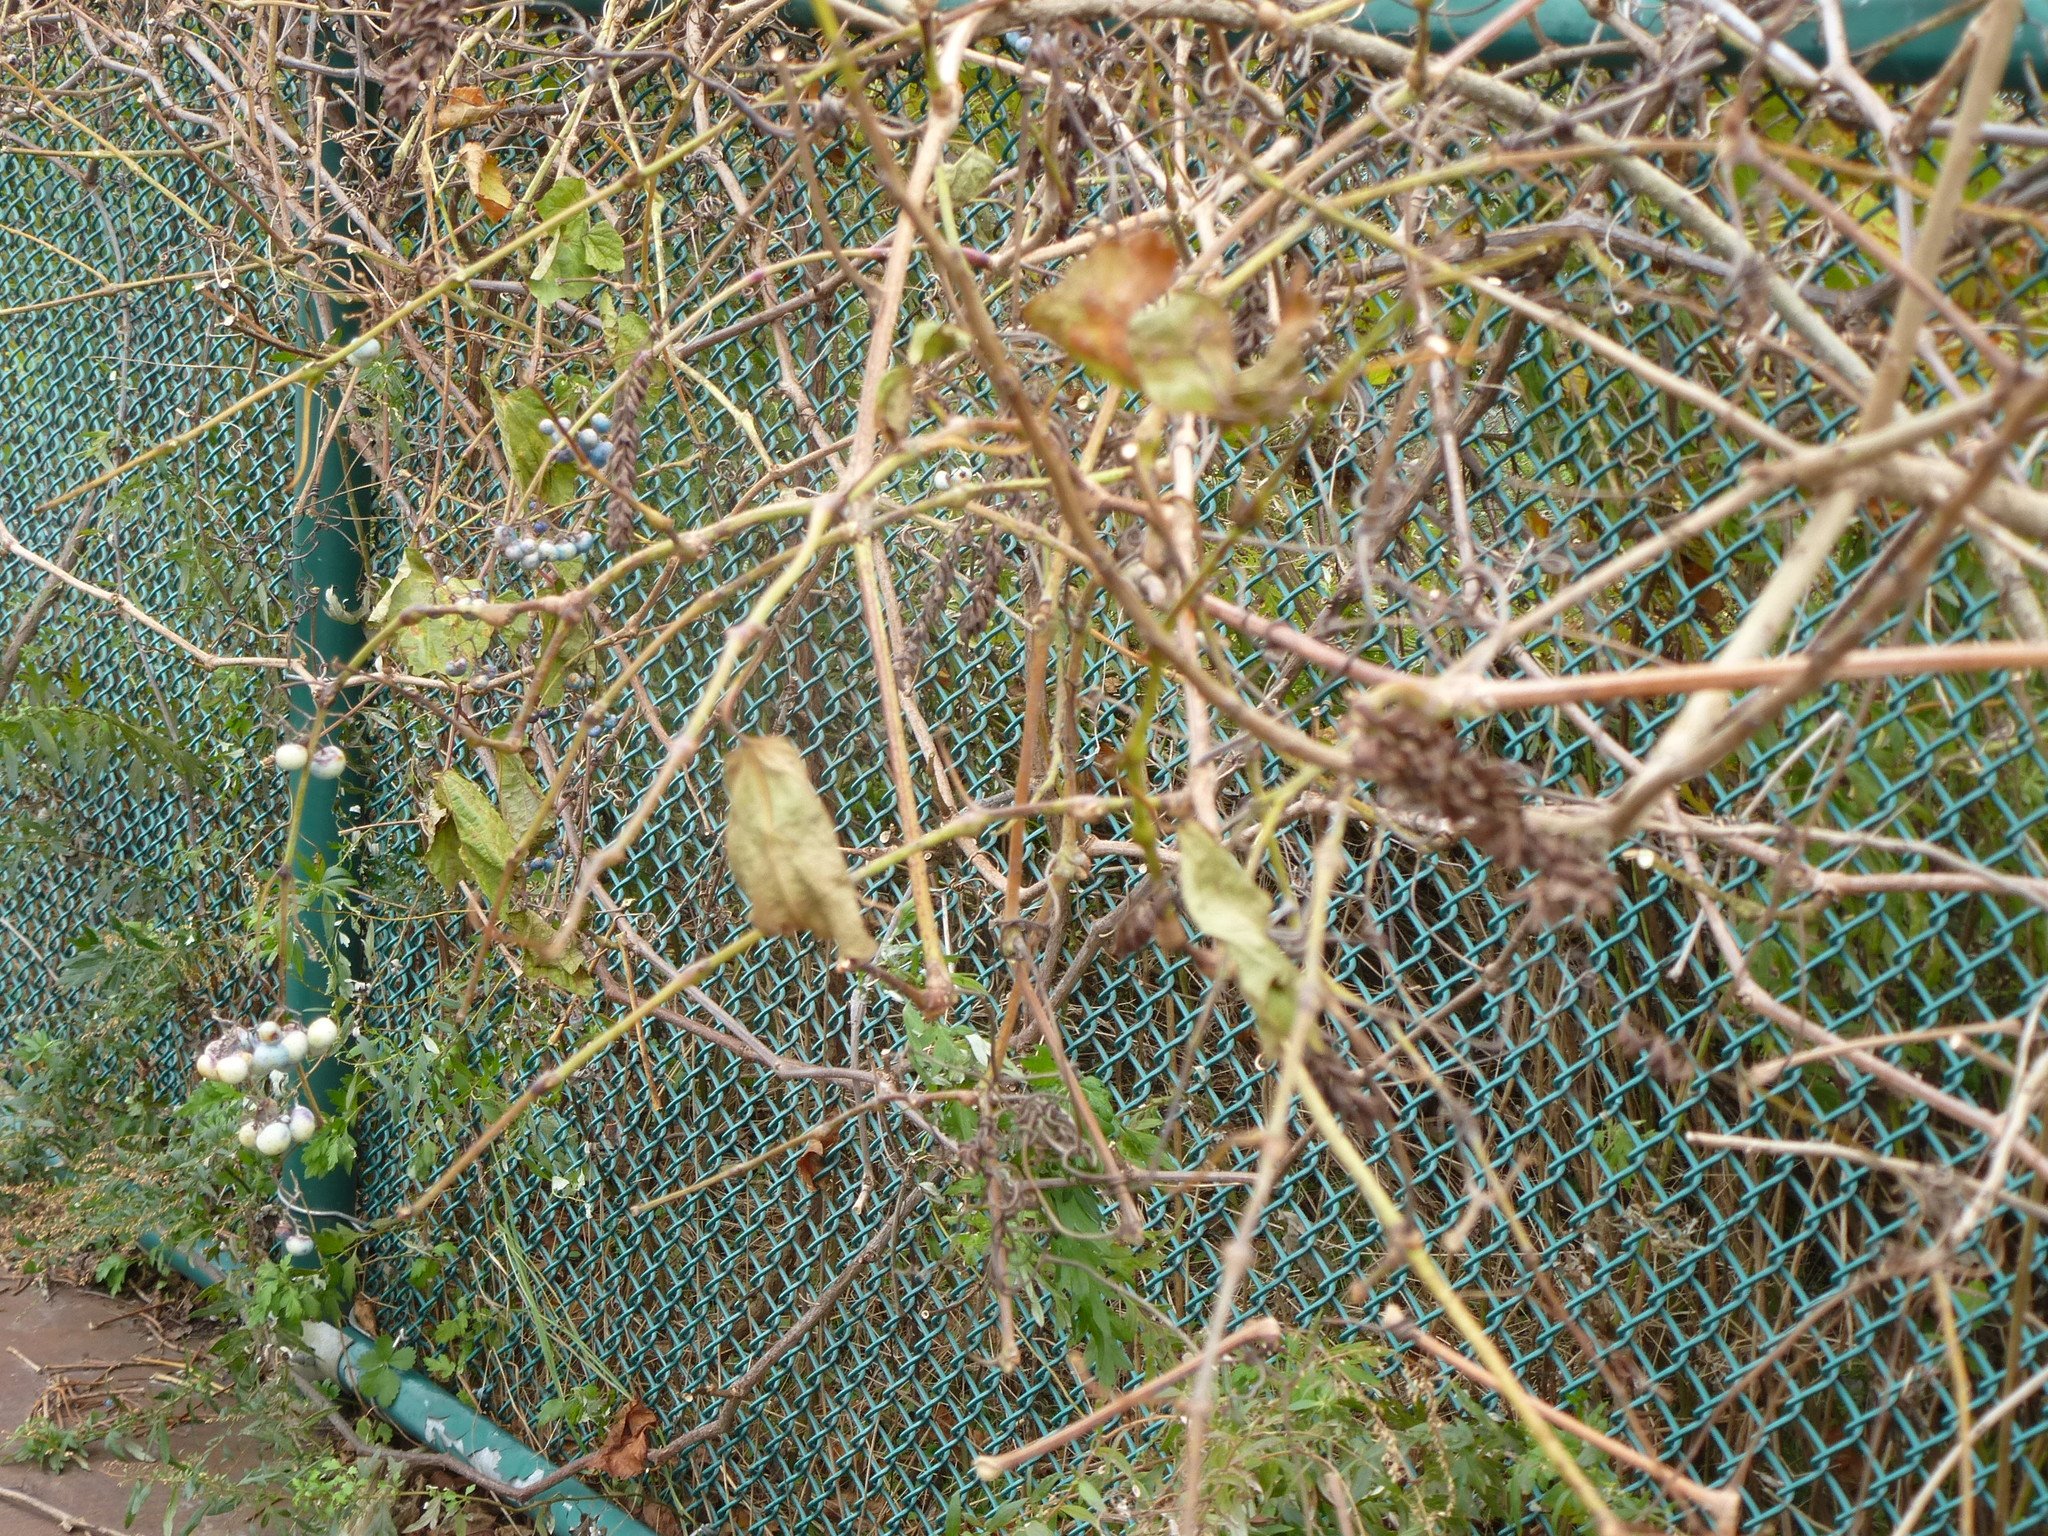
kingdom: Plantae
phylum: Tracheophyta
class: Magnoliopsida
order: Vitales
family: Vitaceae
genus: Ampelopsis
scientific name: Ampelopsis glandulosa
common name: Amur peppervine
